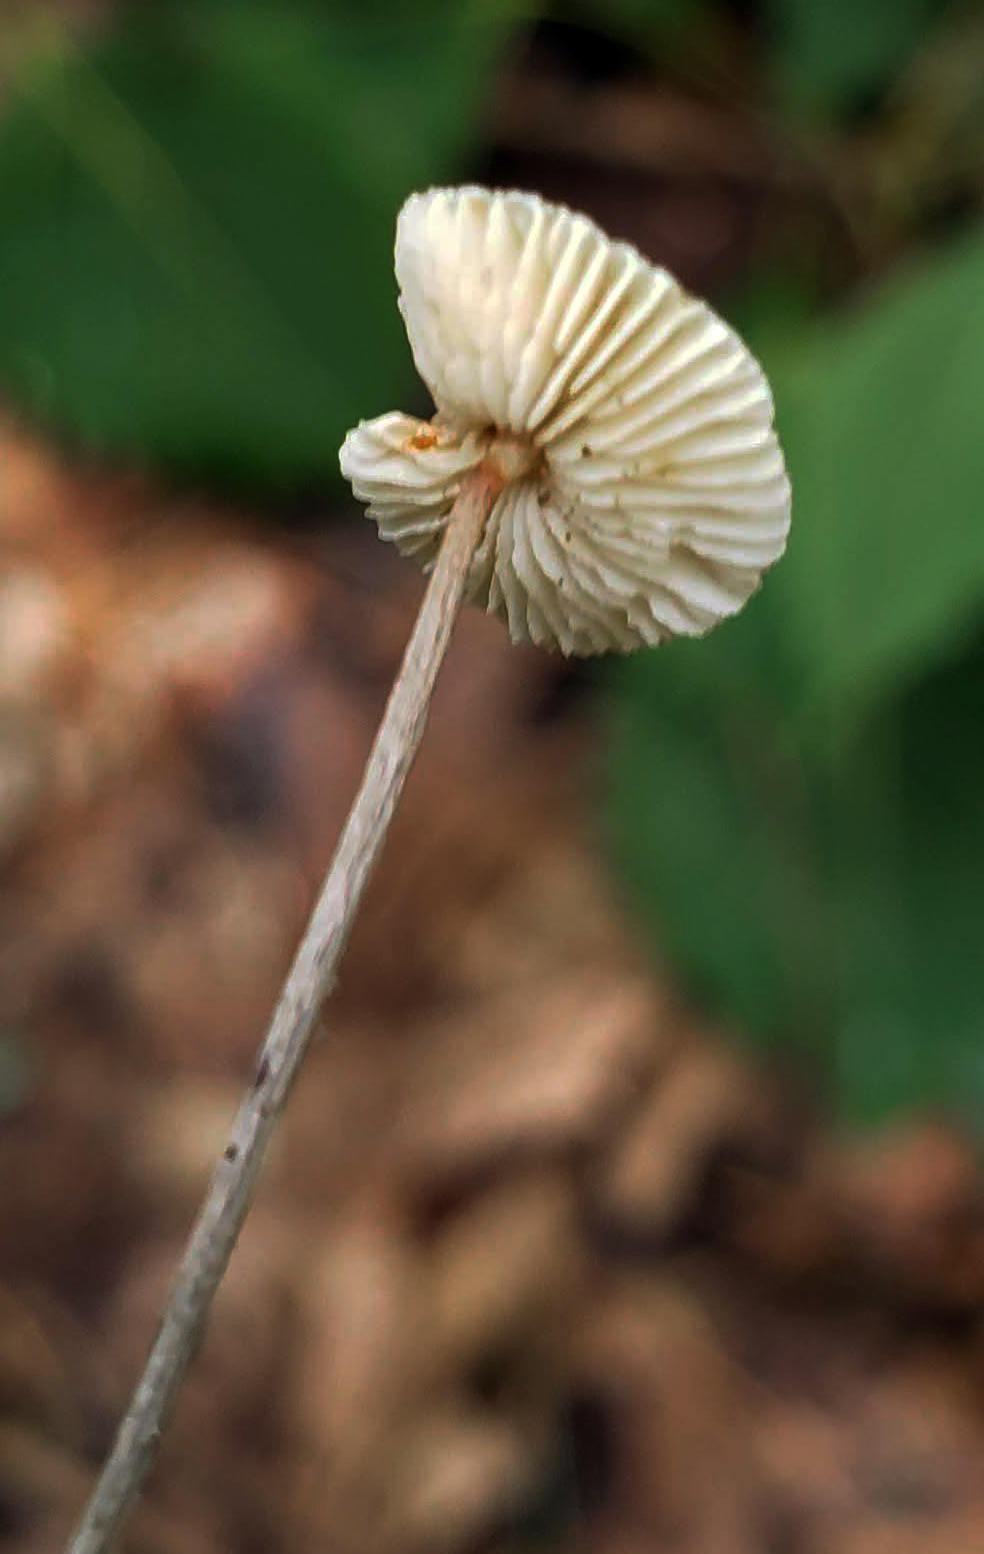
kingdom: Fungi
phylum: Basidiomycota
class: Agaricomycetes
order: Agaricales
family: Tricholomataceae
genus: Collybia
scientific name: Collybia zonata
